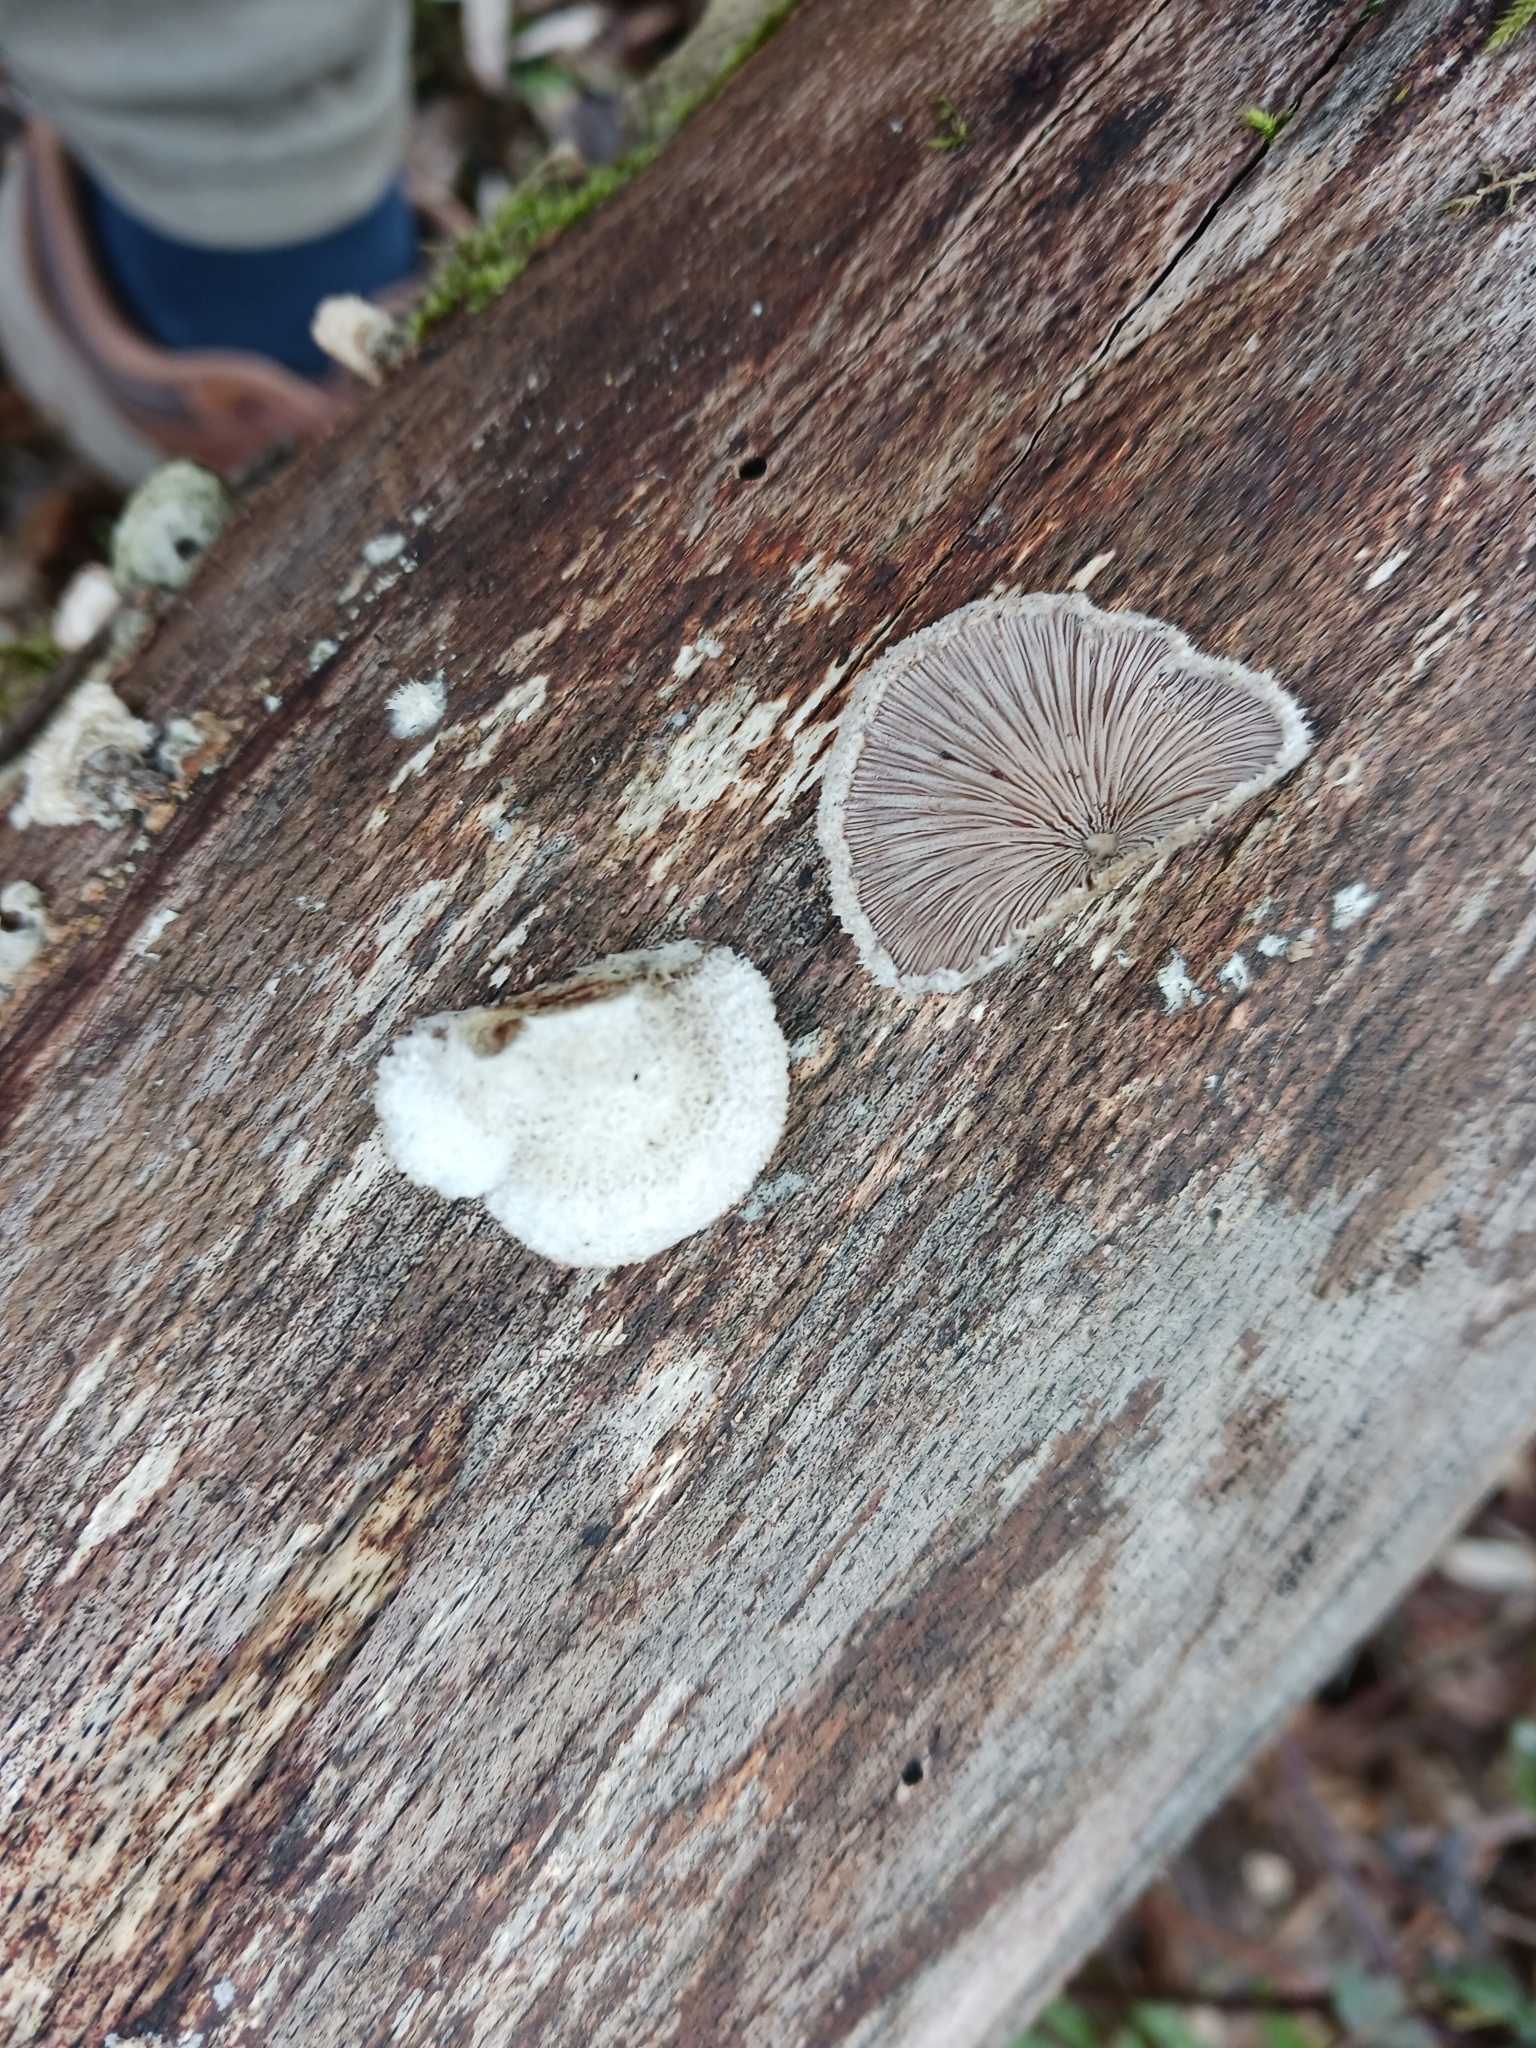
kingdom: Fungi
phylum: Basidiomycota
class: Agaricomycetes
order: Agaricales
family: Schizophyllaceae
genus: Schizophyllum
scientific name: Schizophyllum commune
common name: Common porecrust
